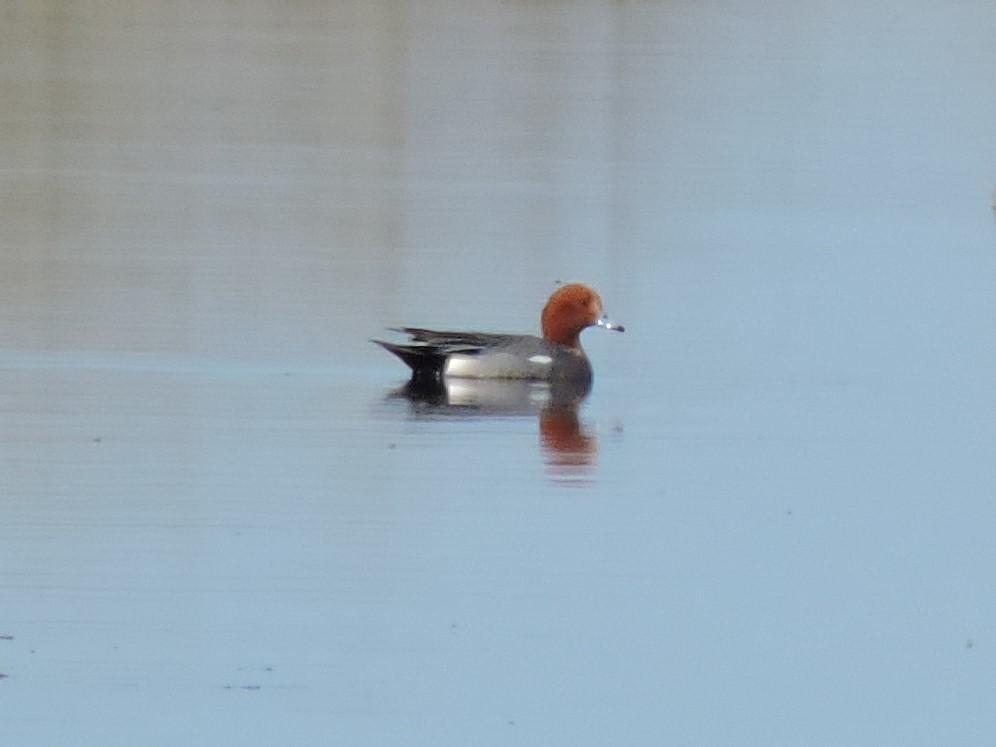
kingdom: Animalia
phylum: Chordata
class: Aves
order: Anseriformes
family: Anatidae
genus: Mareca
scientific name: Mareca penelope
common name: Eurasian wigeon
